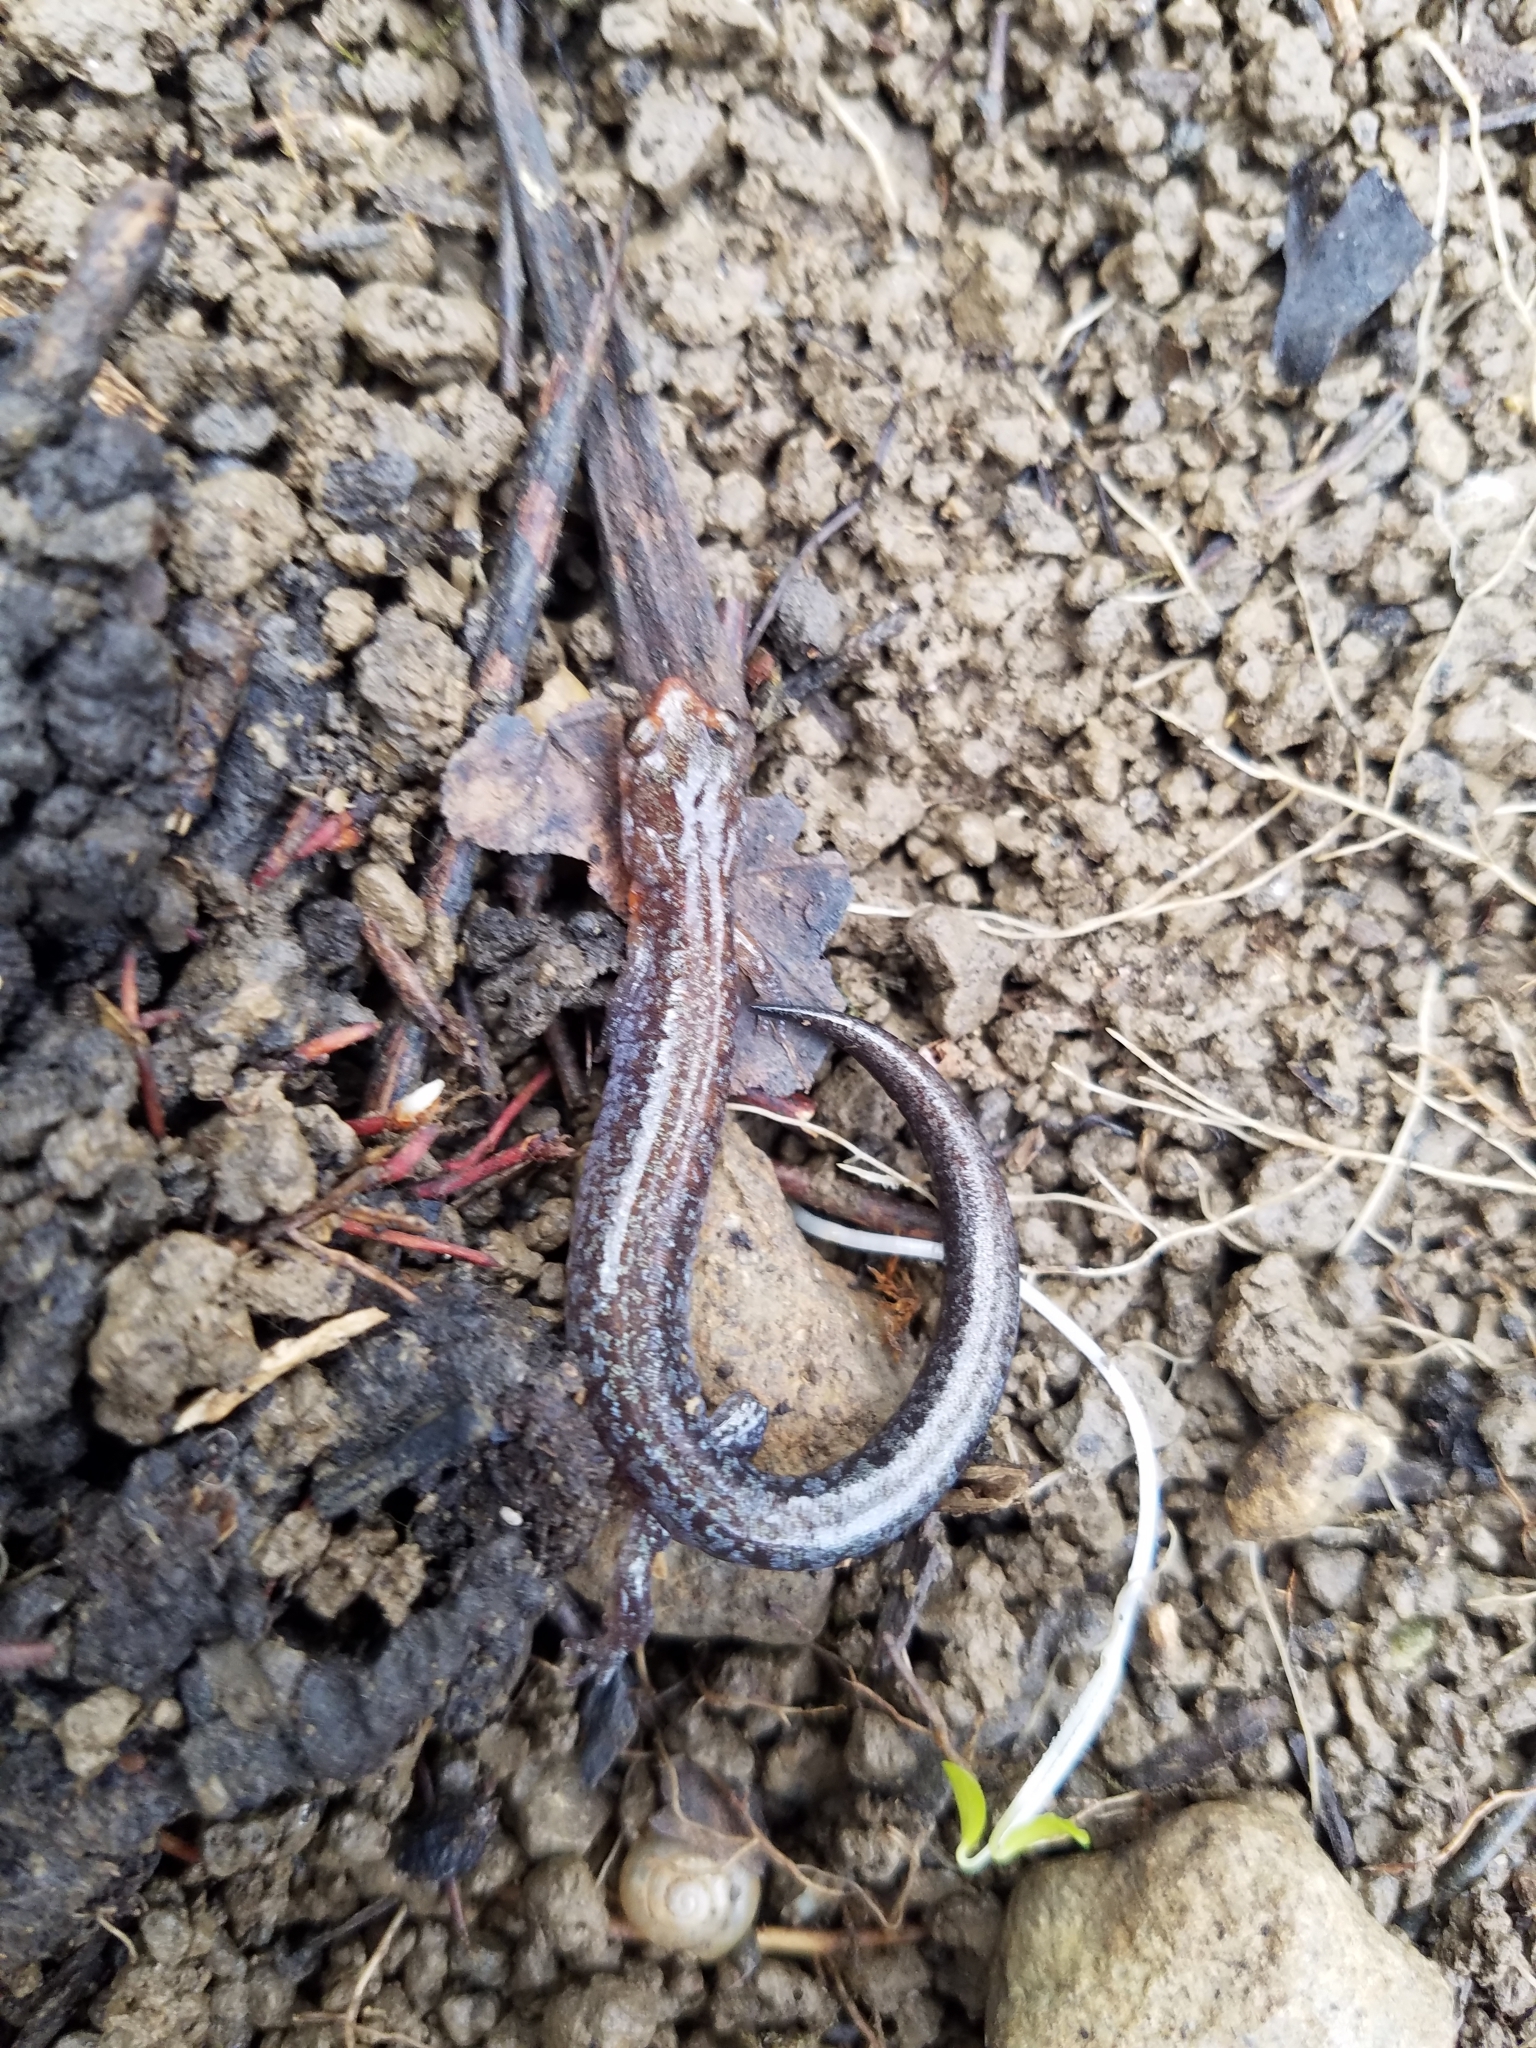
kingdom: Animalia
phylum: Chordata
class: Amphibia
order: Caudata
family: Plethodontidae
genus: Plethodon
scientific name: Plethodon ventralis
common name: Southern zigzag salamander
